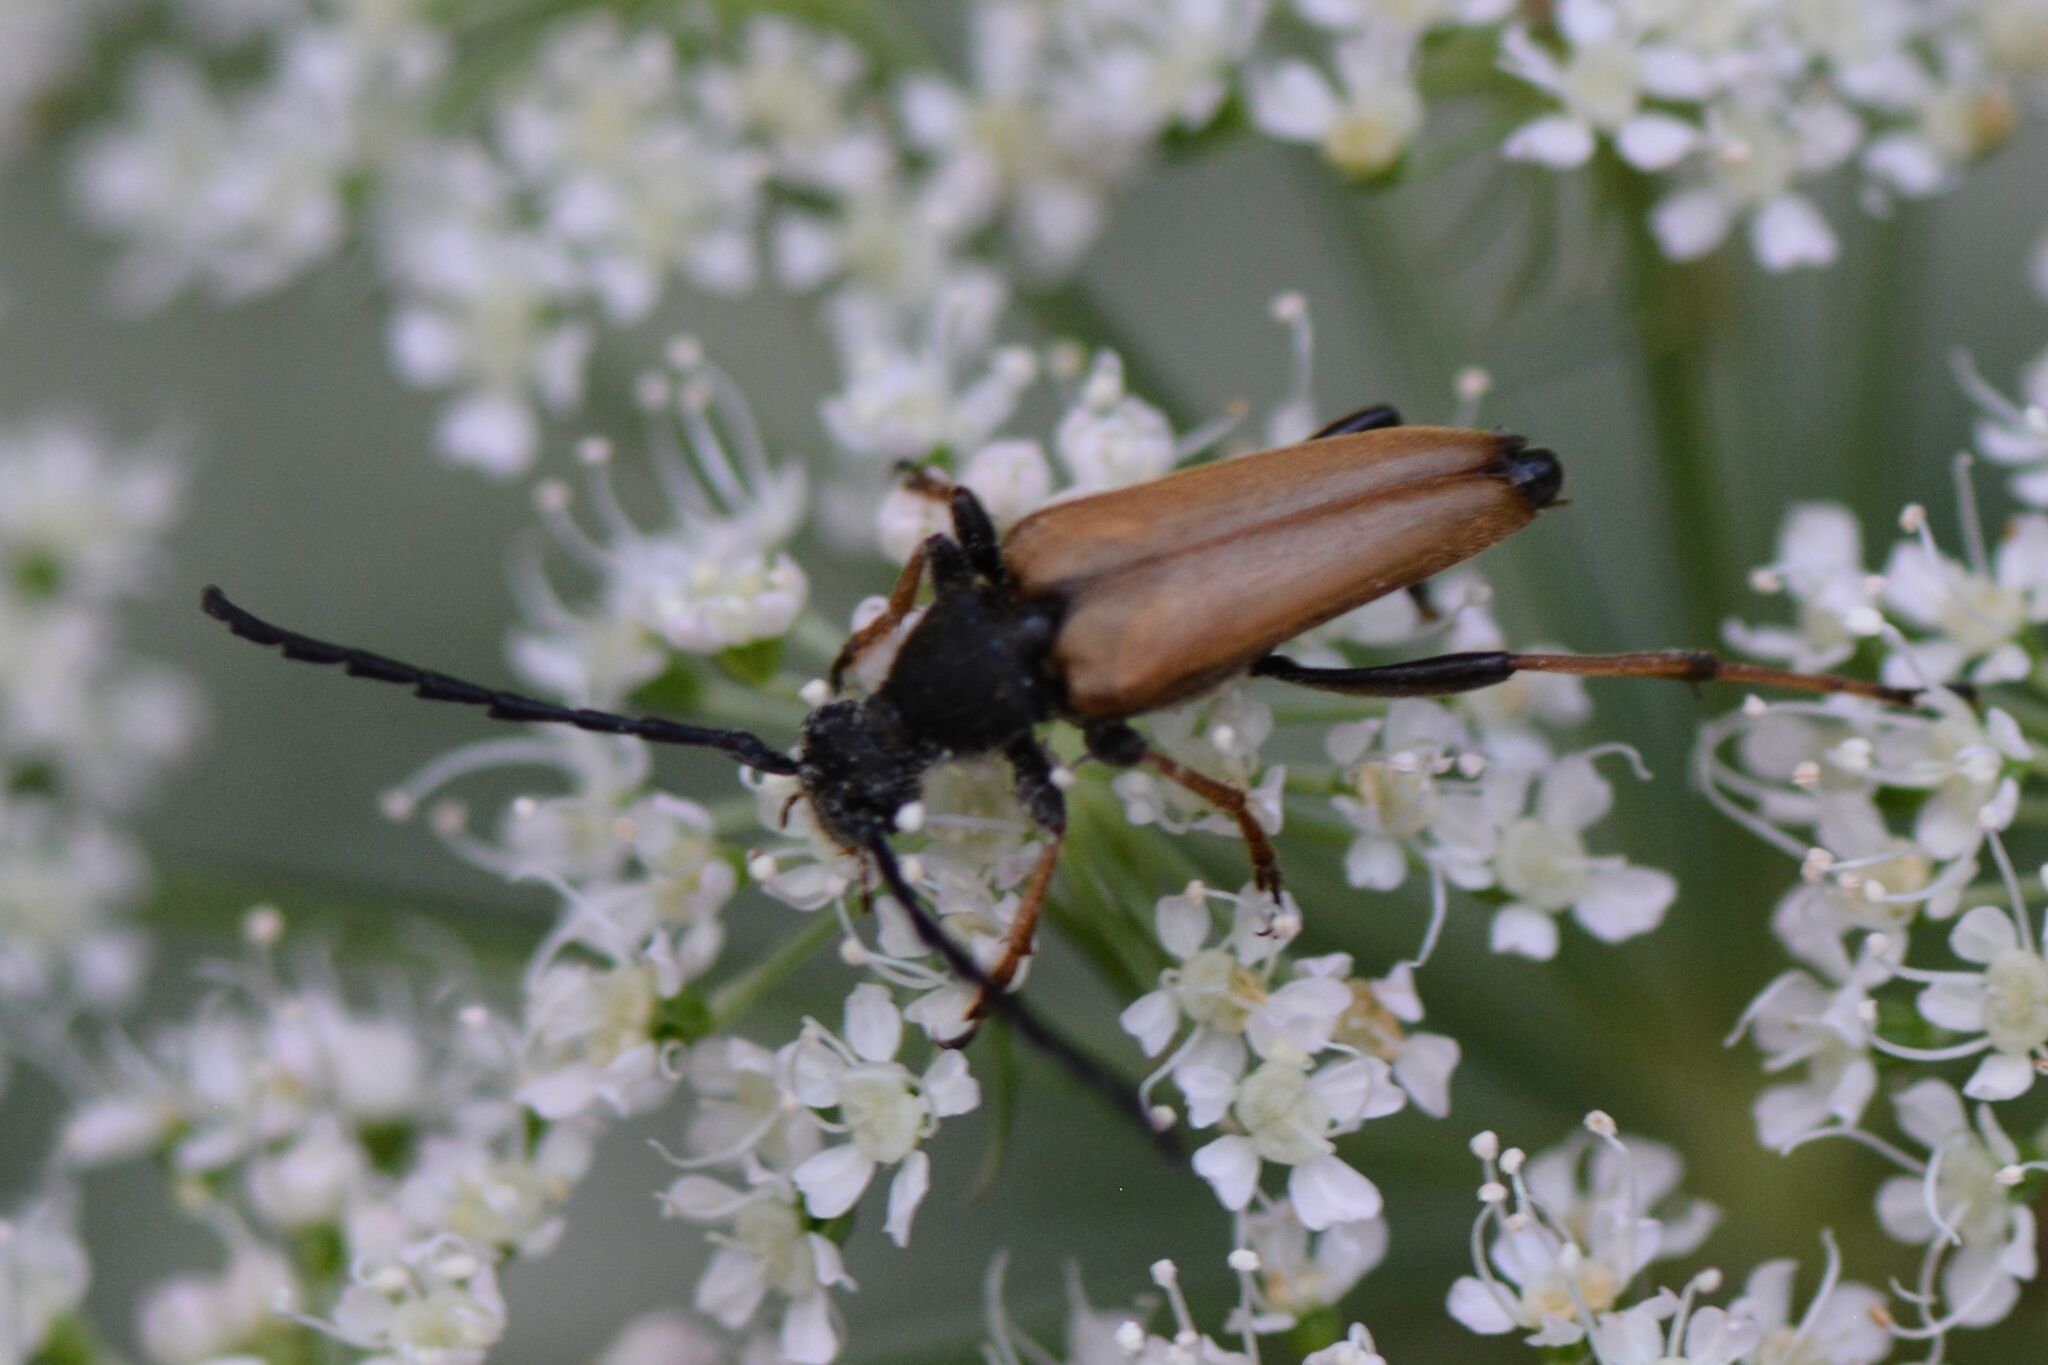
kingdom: Animalia
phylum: Arthropoda
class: Insecta
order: Coleoptera
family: Cerambycidae
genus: Stictoleptura
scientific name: Stictoleptura rubra
